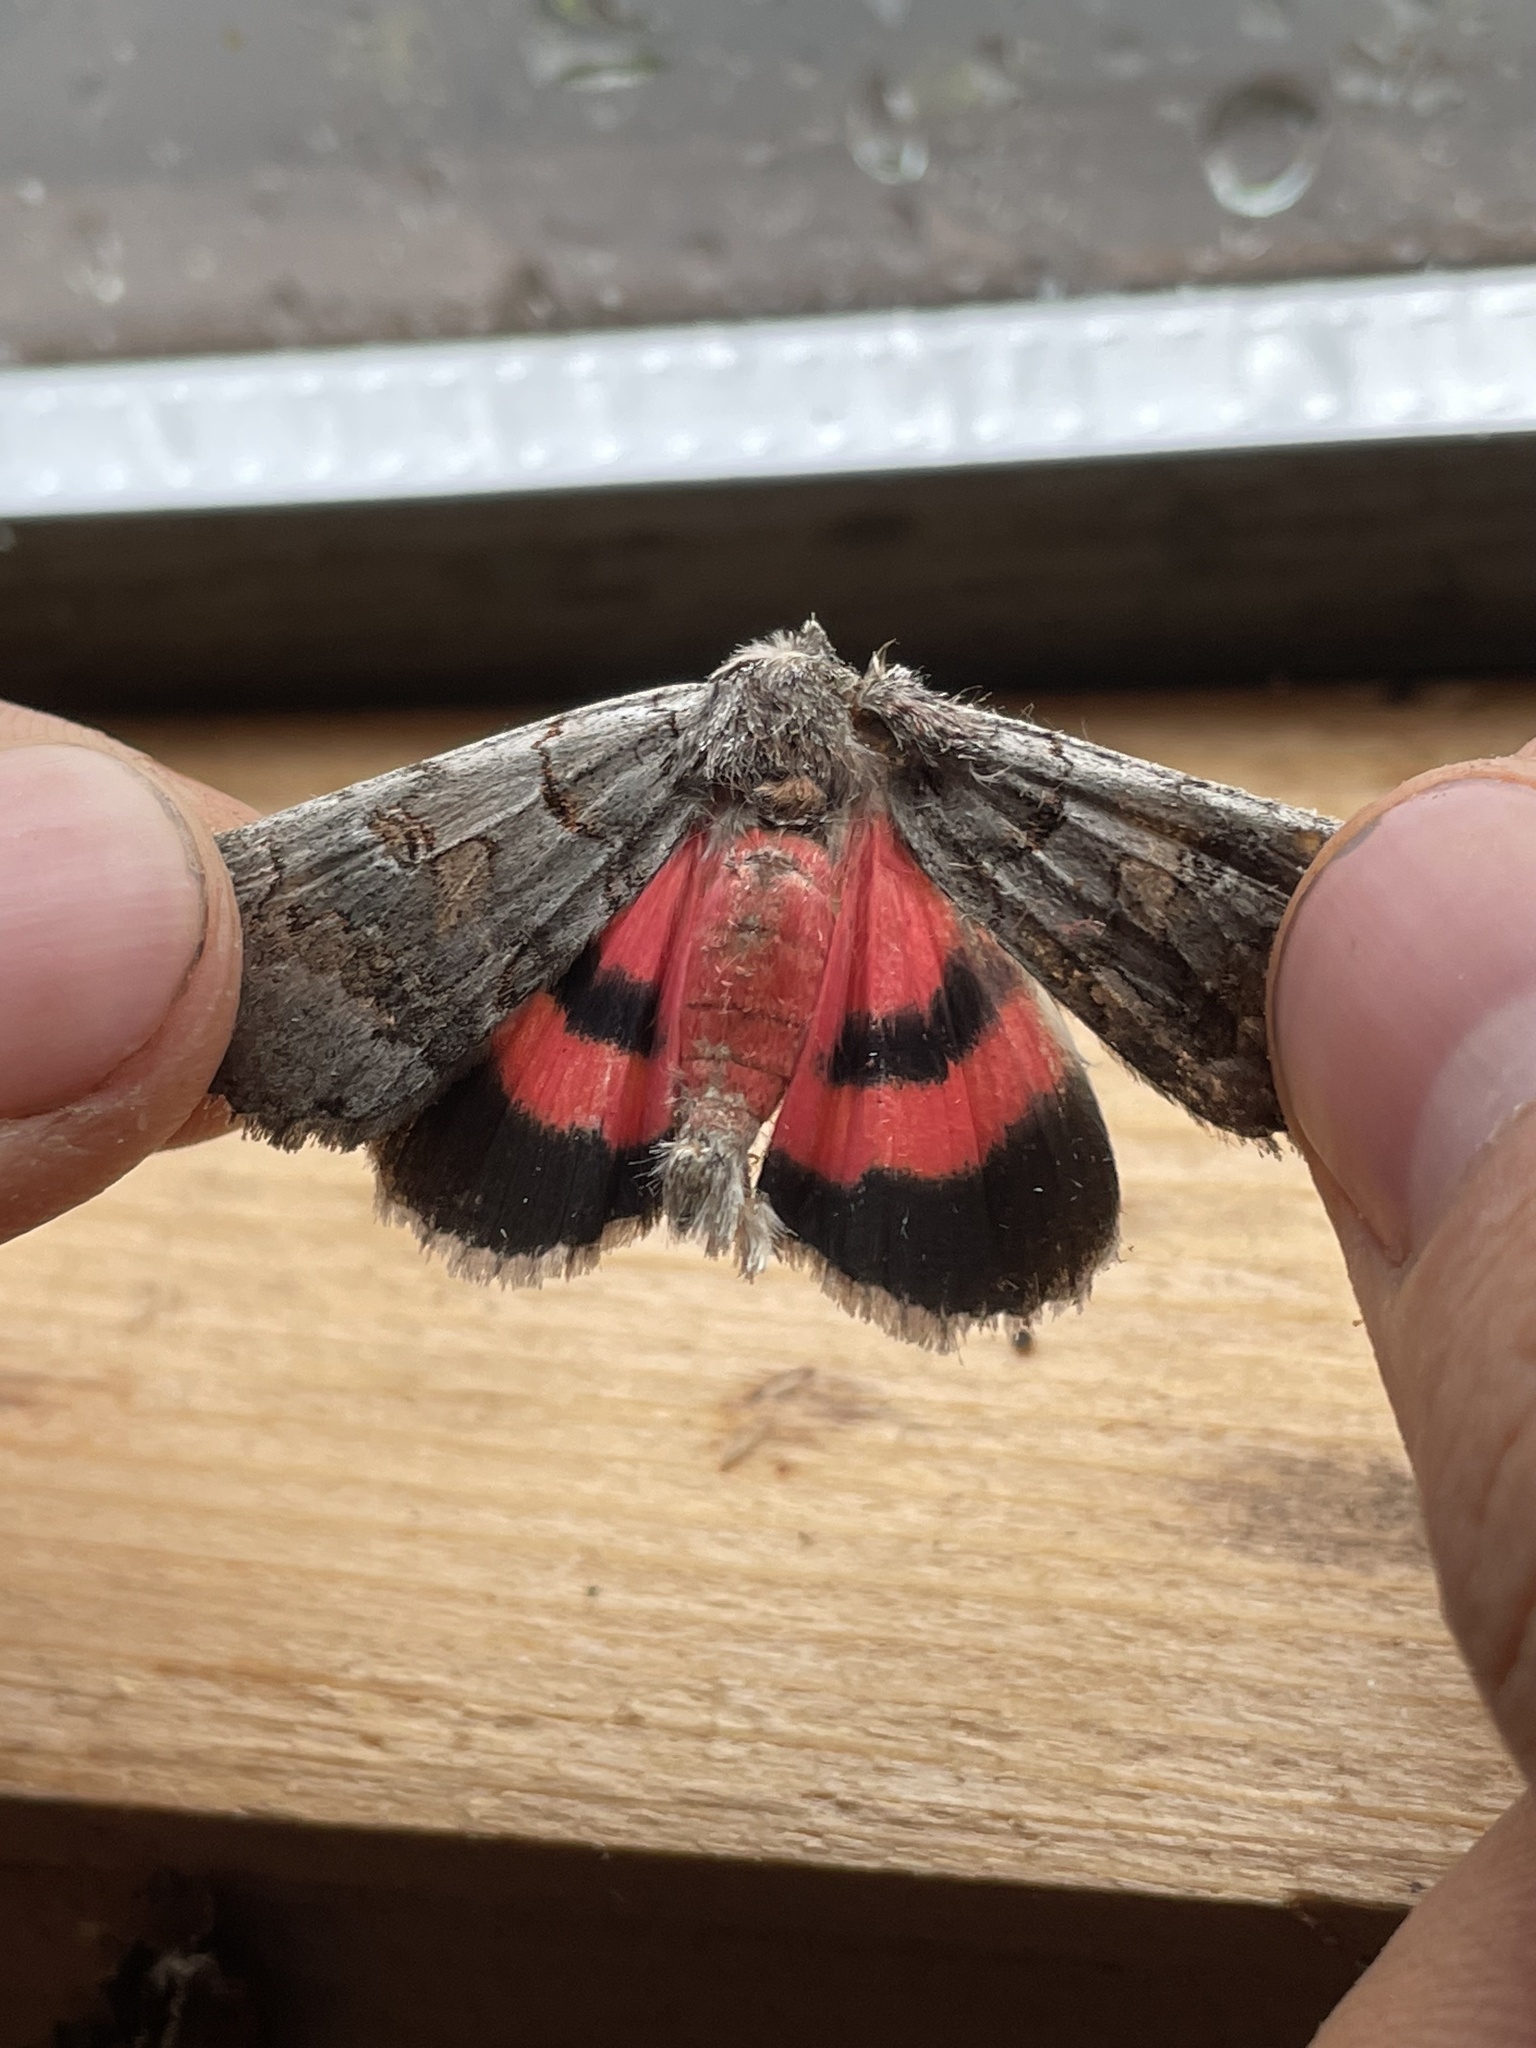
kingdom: Animalia
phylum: Arthropoda
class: Insecta
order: Lepidoptera
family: Erebidae
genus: Catocala
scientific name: Catocala pacta
